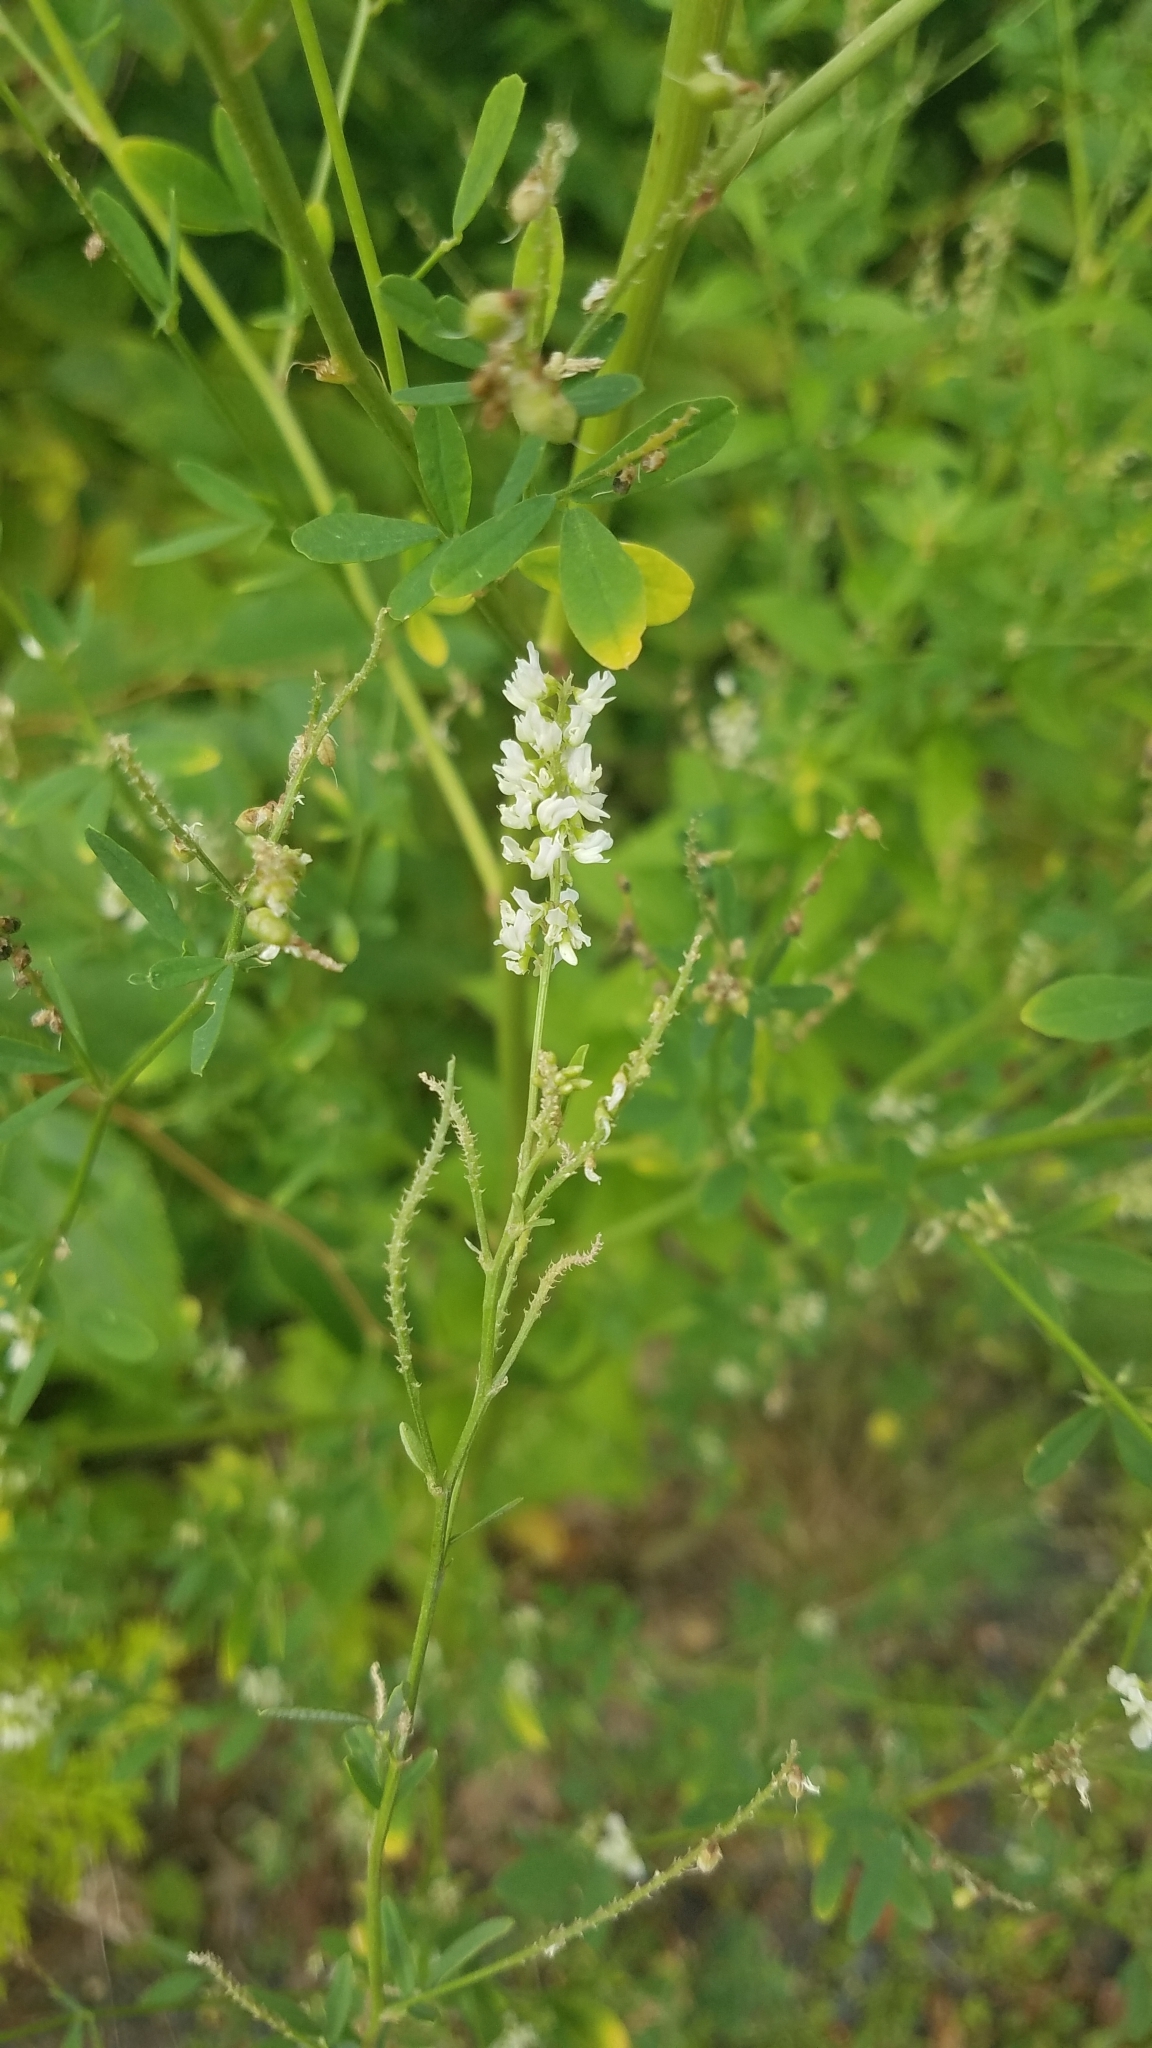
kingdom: Plantae
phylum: Tracheophyta
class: Magnoliopsida
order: Fabales
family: Fabaceae
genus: Melilotus
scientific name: Melilotus albus
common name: White melilot
